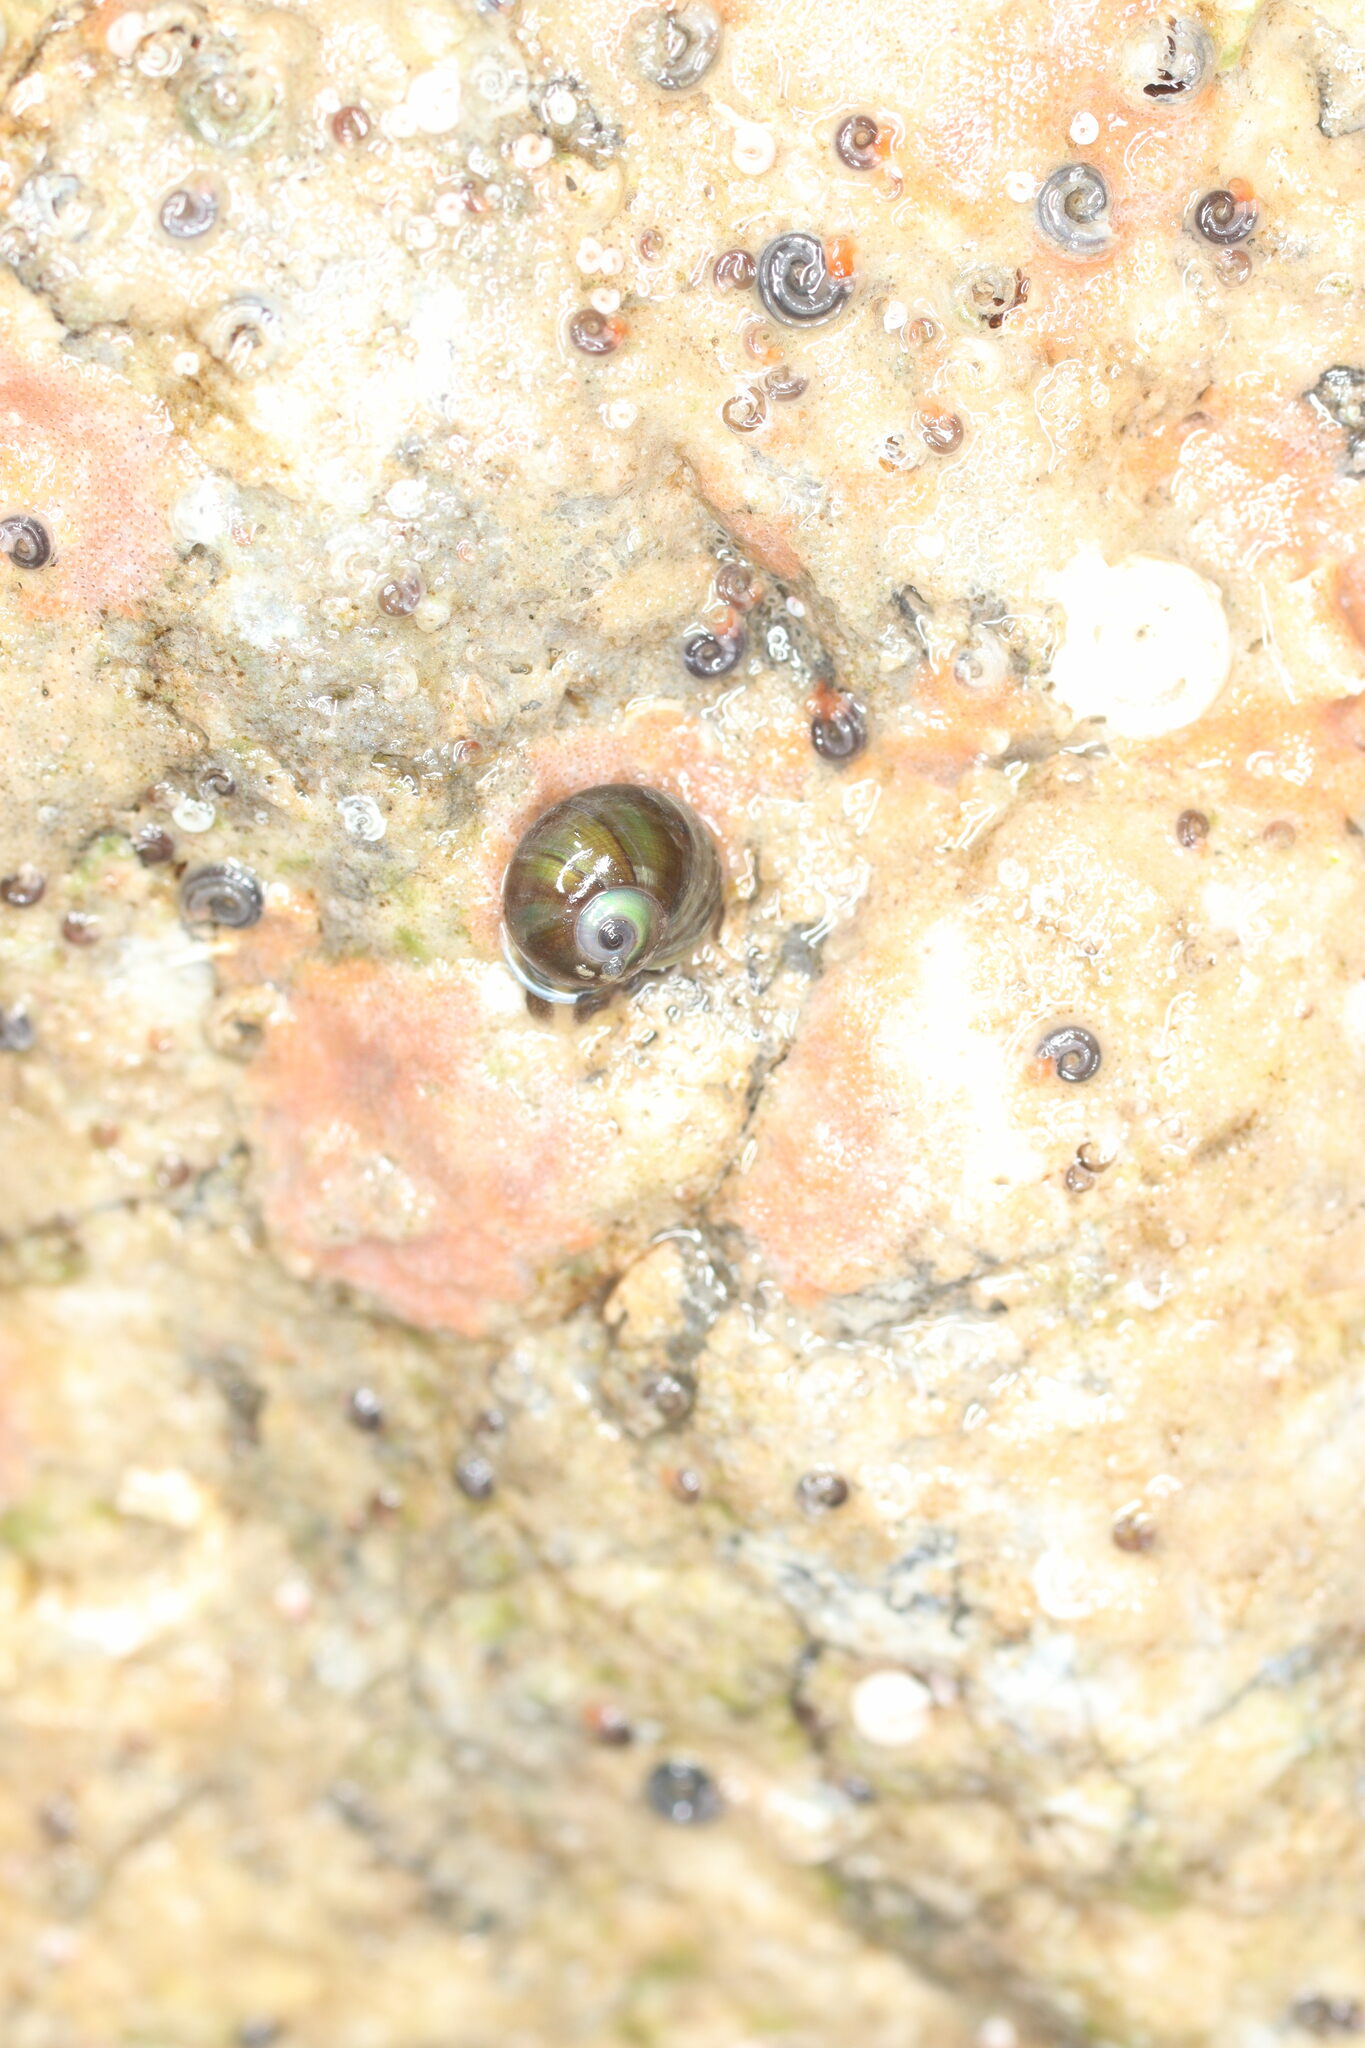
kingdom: Animalia
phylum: Mollusca
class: Gastropoda
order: Trochida
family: Margaritidae
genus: Margarites
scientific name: Margarites helicinus
